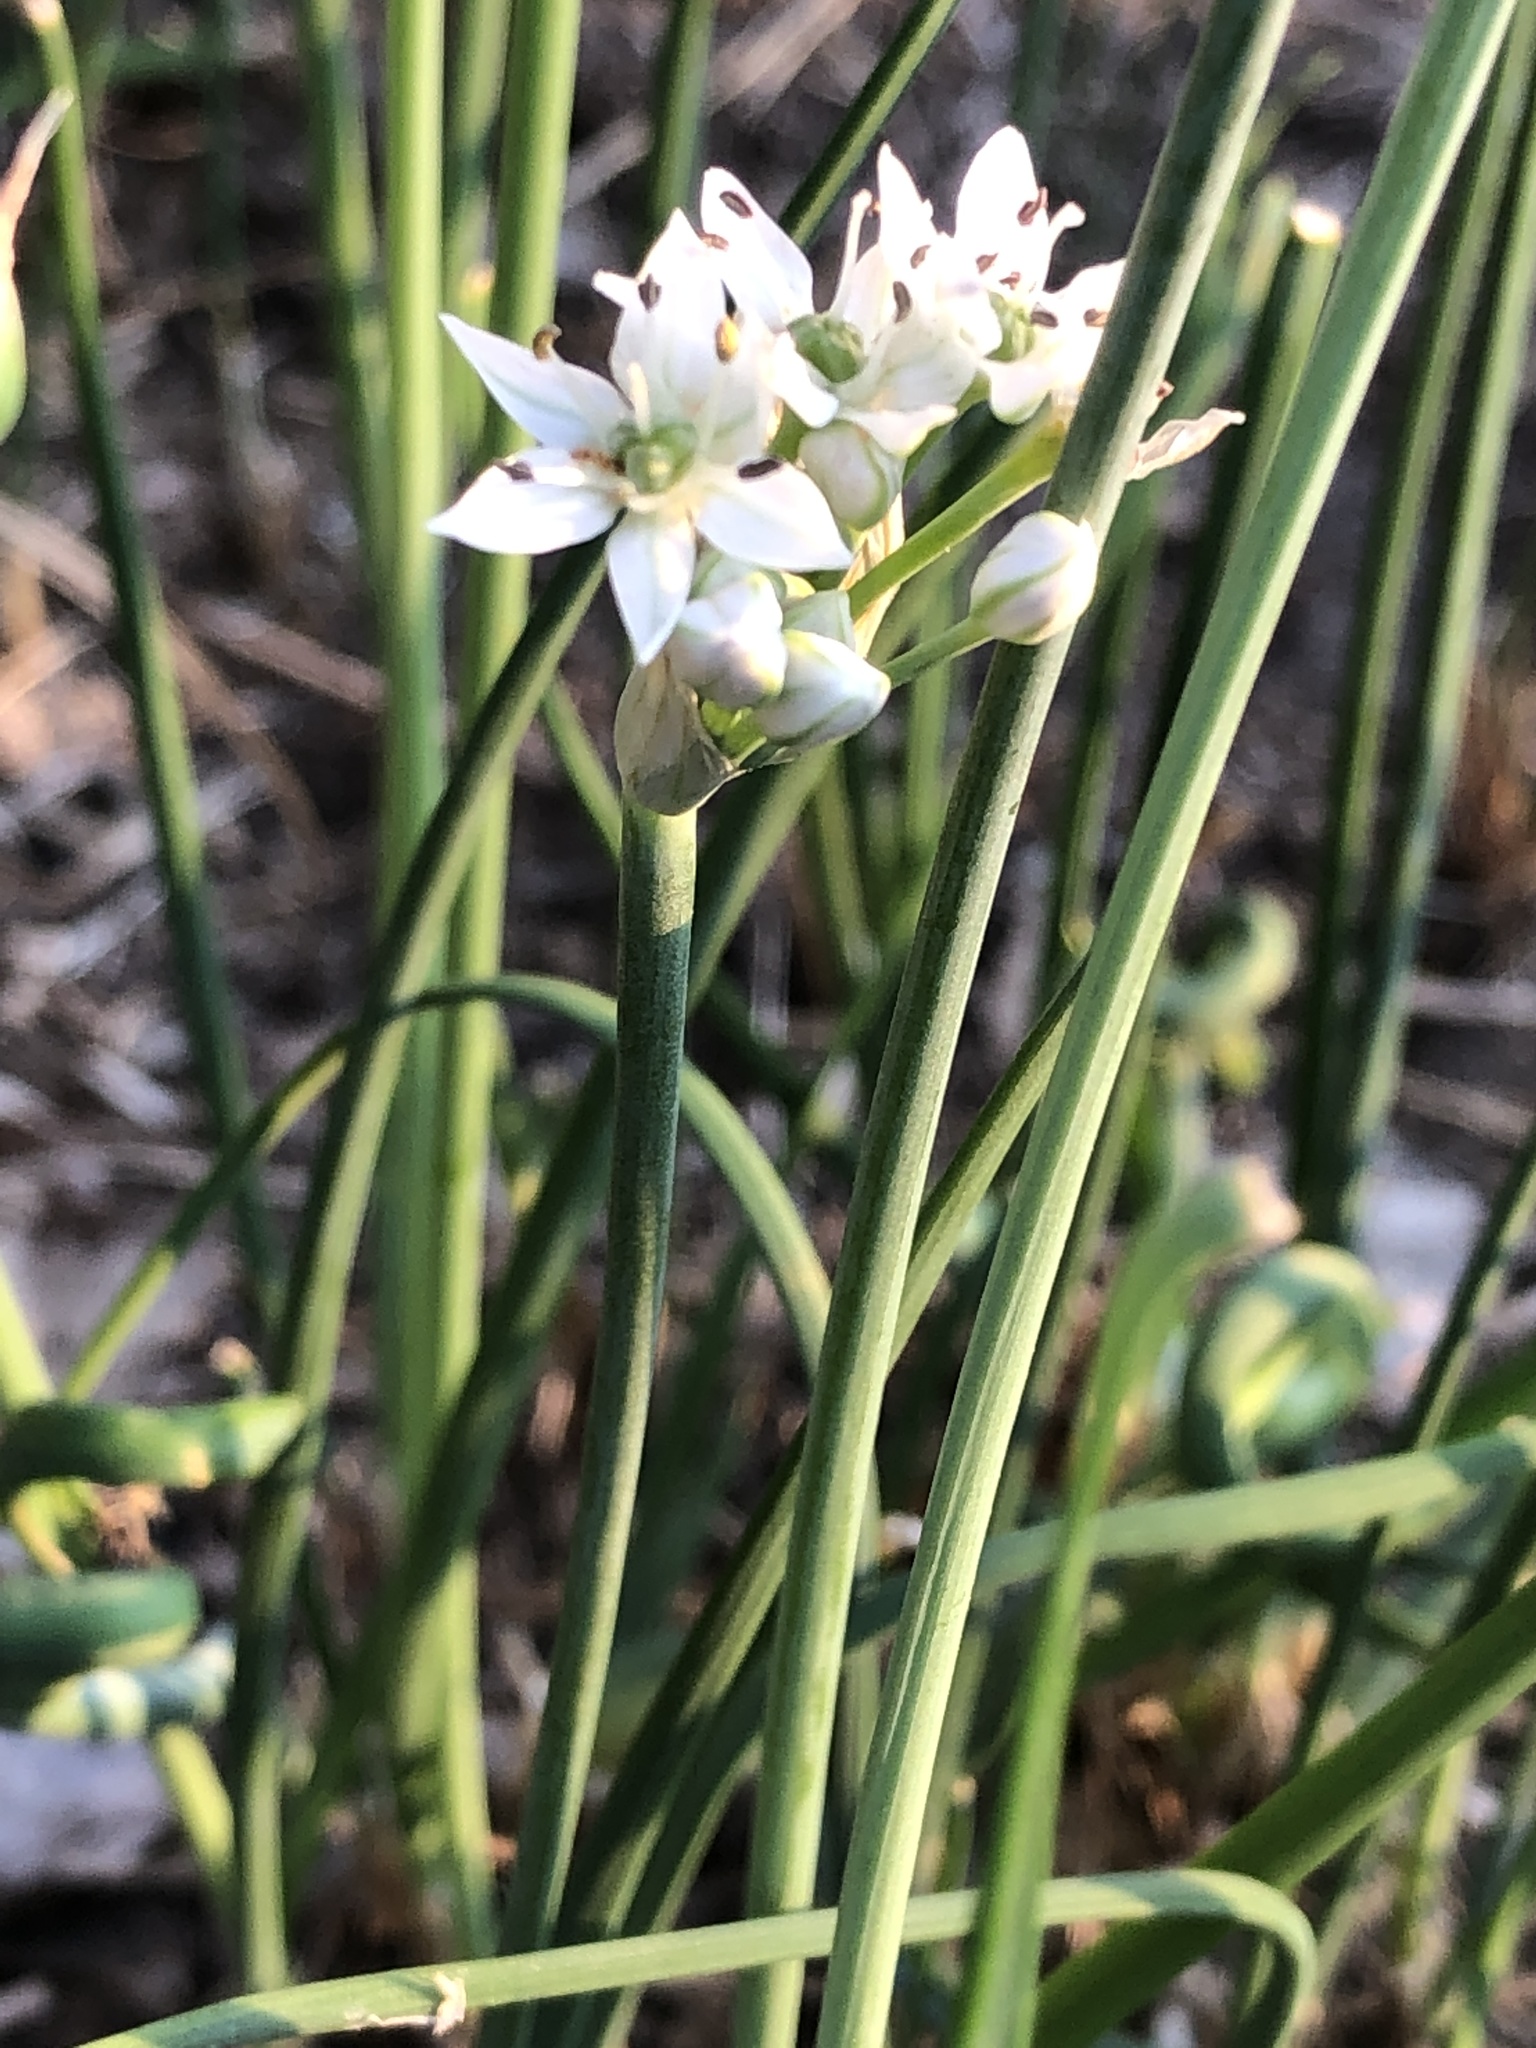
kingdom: Plantae
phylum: Tracheophyta
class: Liliopsida
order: Asparagales
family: Amaryllidaceae
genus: Allium
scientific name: Allium tuberosum
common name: Chinese chives
